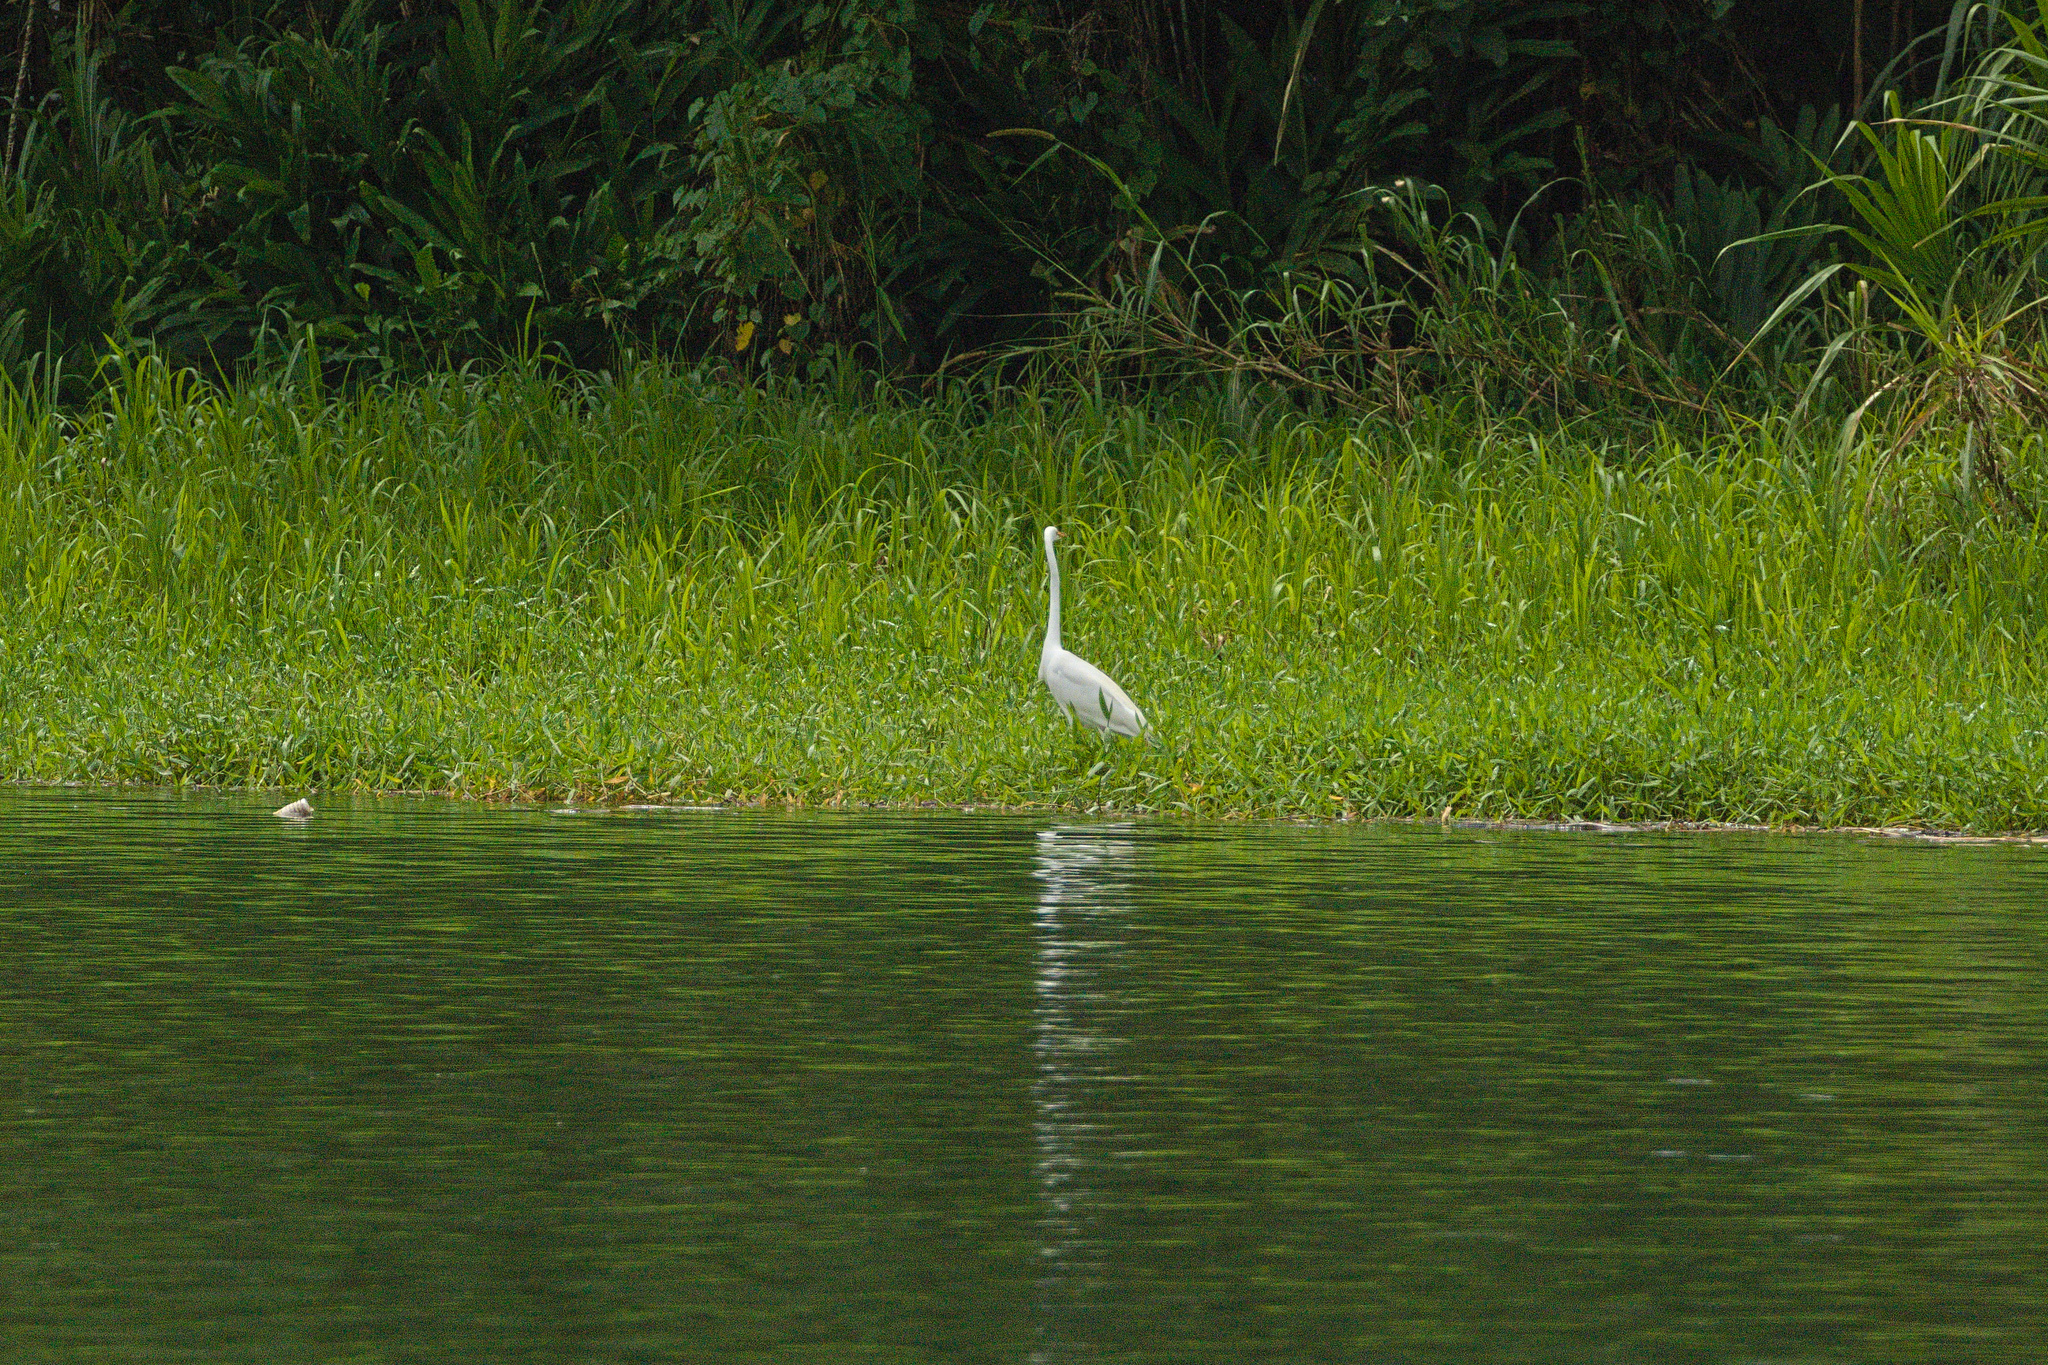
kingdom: Animalia
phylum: Chordata
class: Aves
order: Pelecaniformes
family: Ardeidae
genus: Ardea
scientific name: Ardea alba
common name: Great egret
